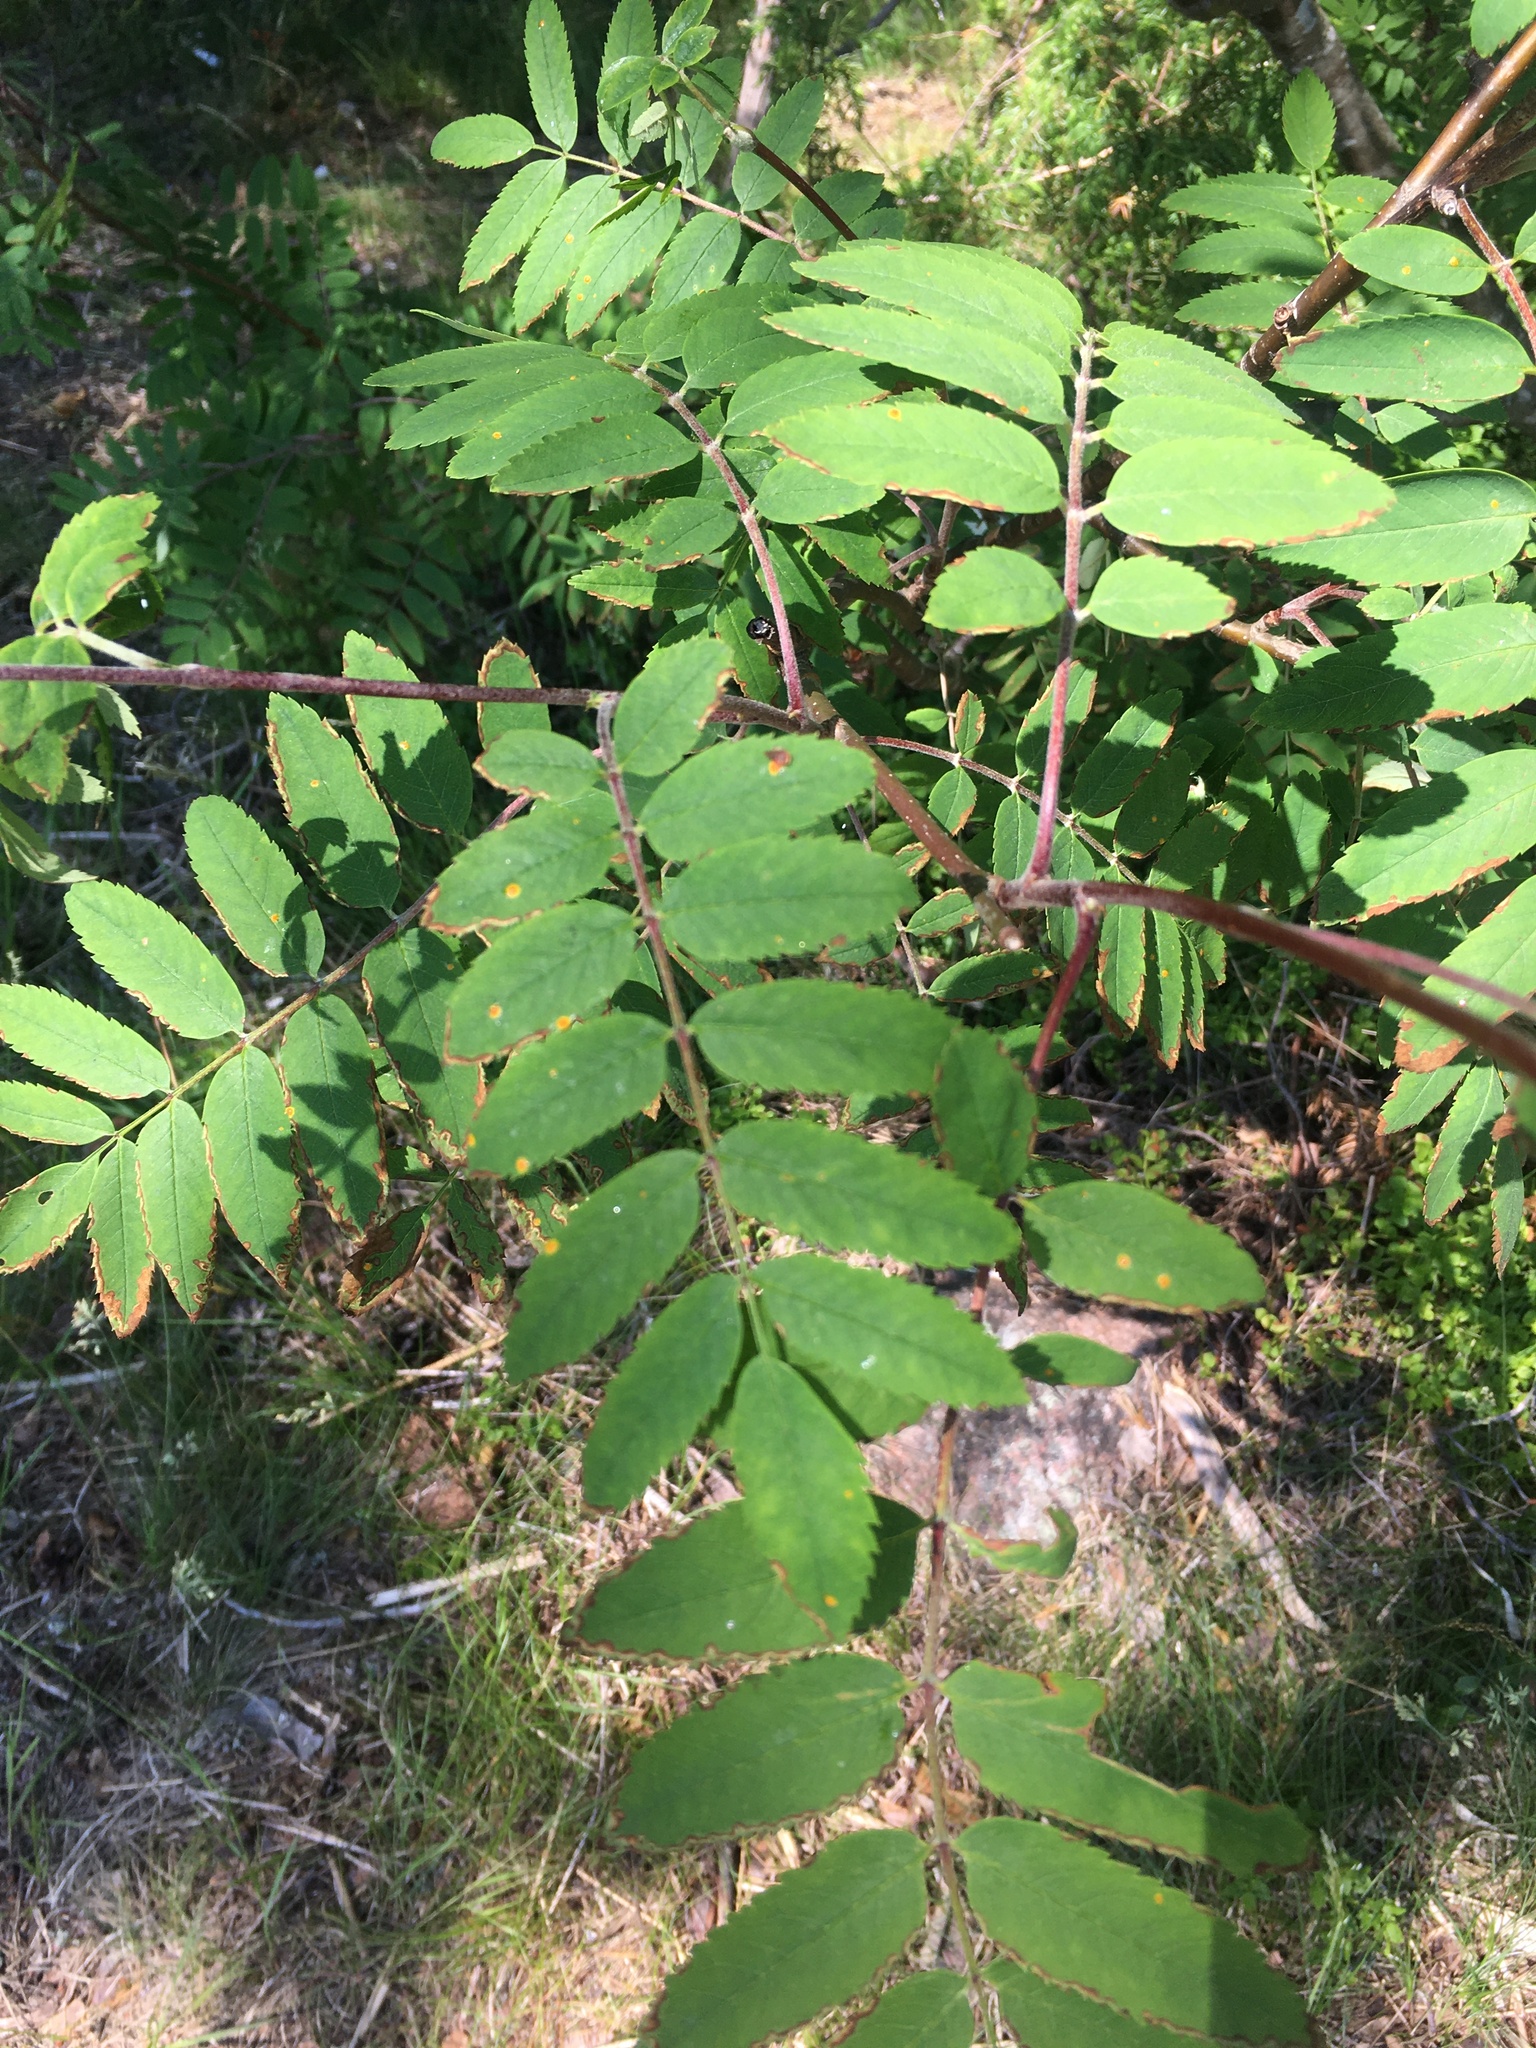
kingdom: Plantae
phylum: Tracheophyta
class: Magnoliopsida
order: Rosales
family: Rosaceae
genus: Sorbus
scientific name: Sorbus aucuparia
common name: Rowan
